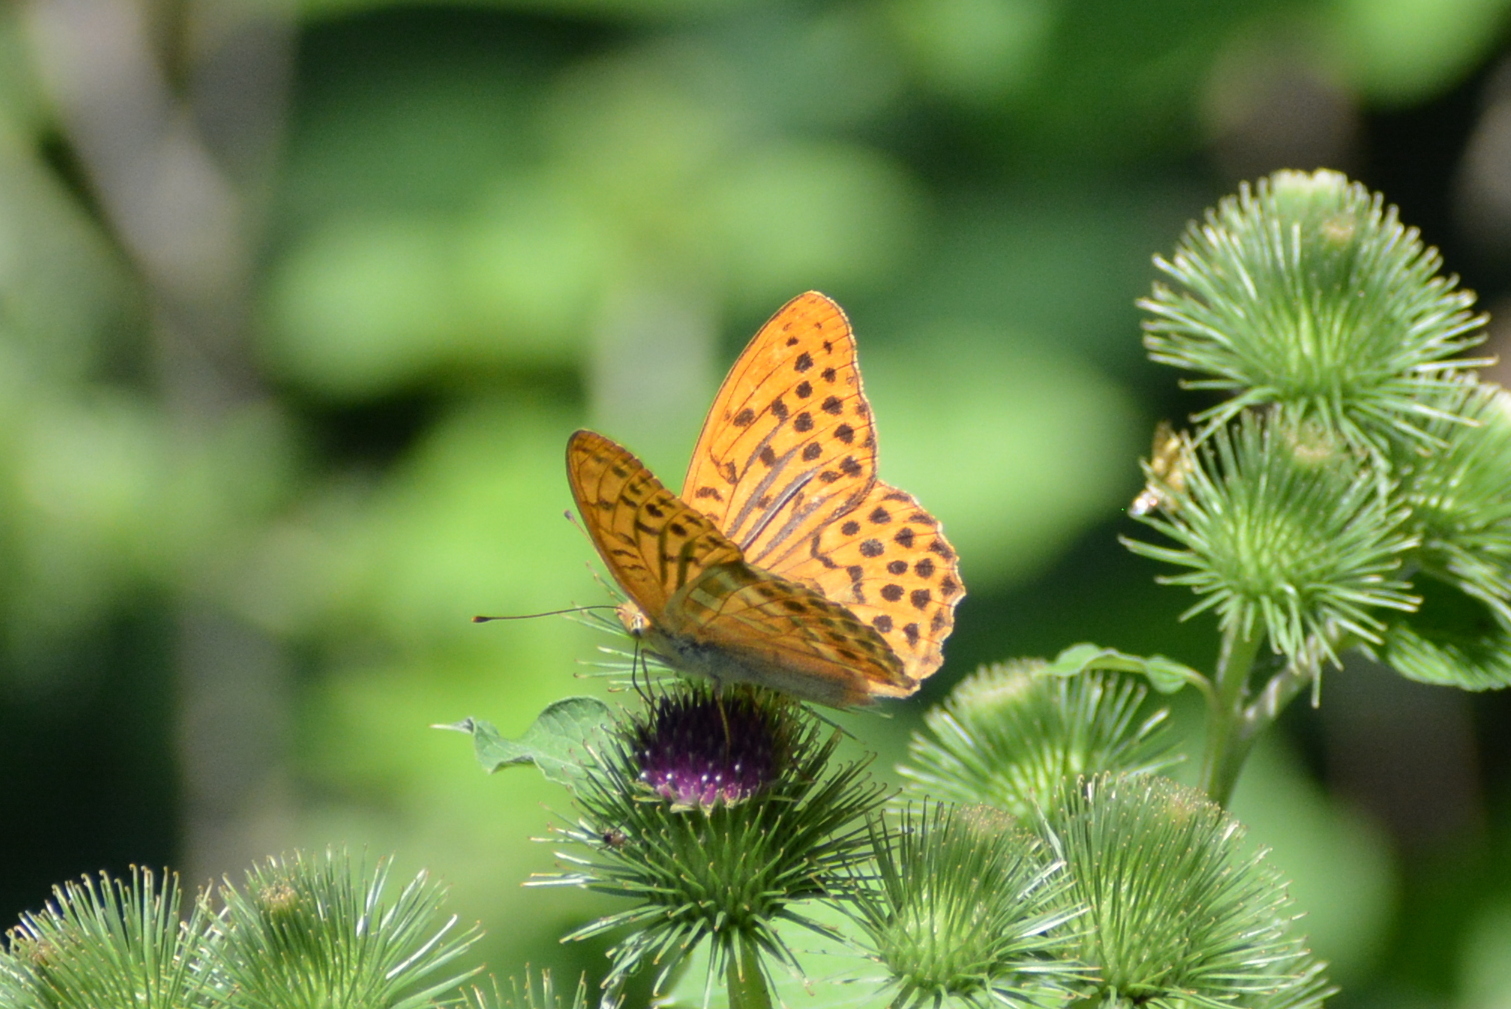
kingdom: Animalia
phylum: Arthropoda
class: Insecta
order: Lepidoptera
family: Nymphalidae
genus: Argynnis
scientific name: Argynnis paphia
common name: Silver-washed fritillary
